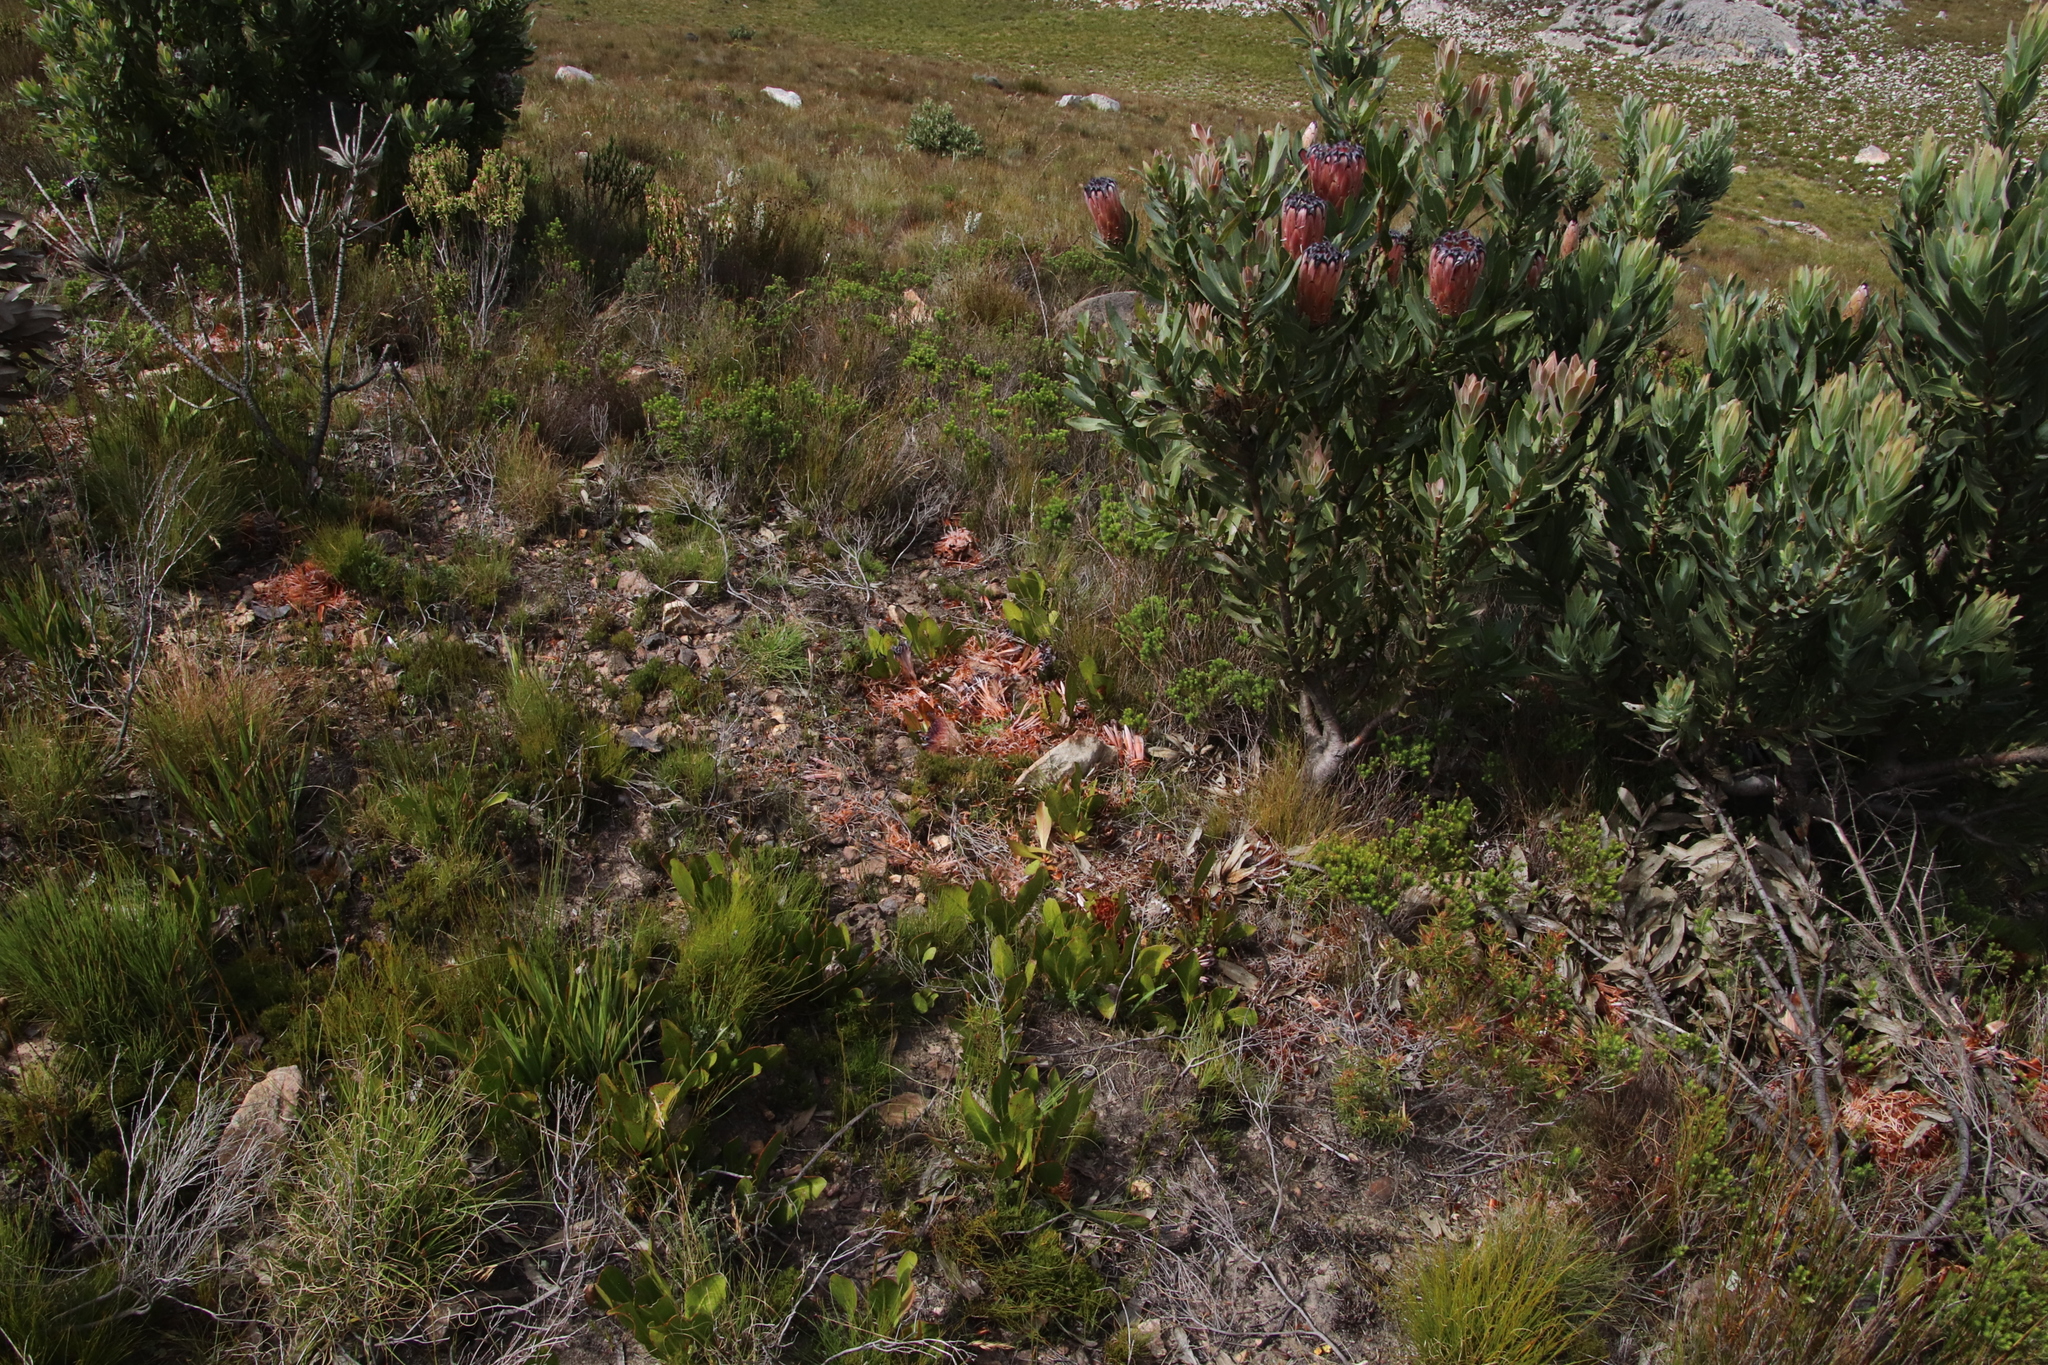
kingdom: Animalia
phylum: Chordata
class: Mammalia
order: Primates
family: Cercopithecidae
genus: Papio
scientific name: Papio ursinus
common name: Chacma baboon
